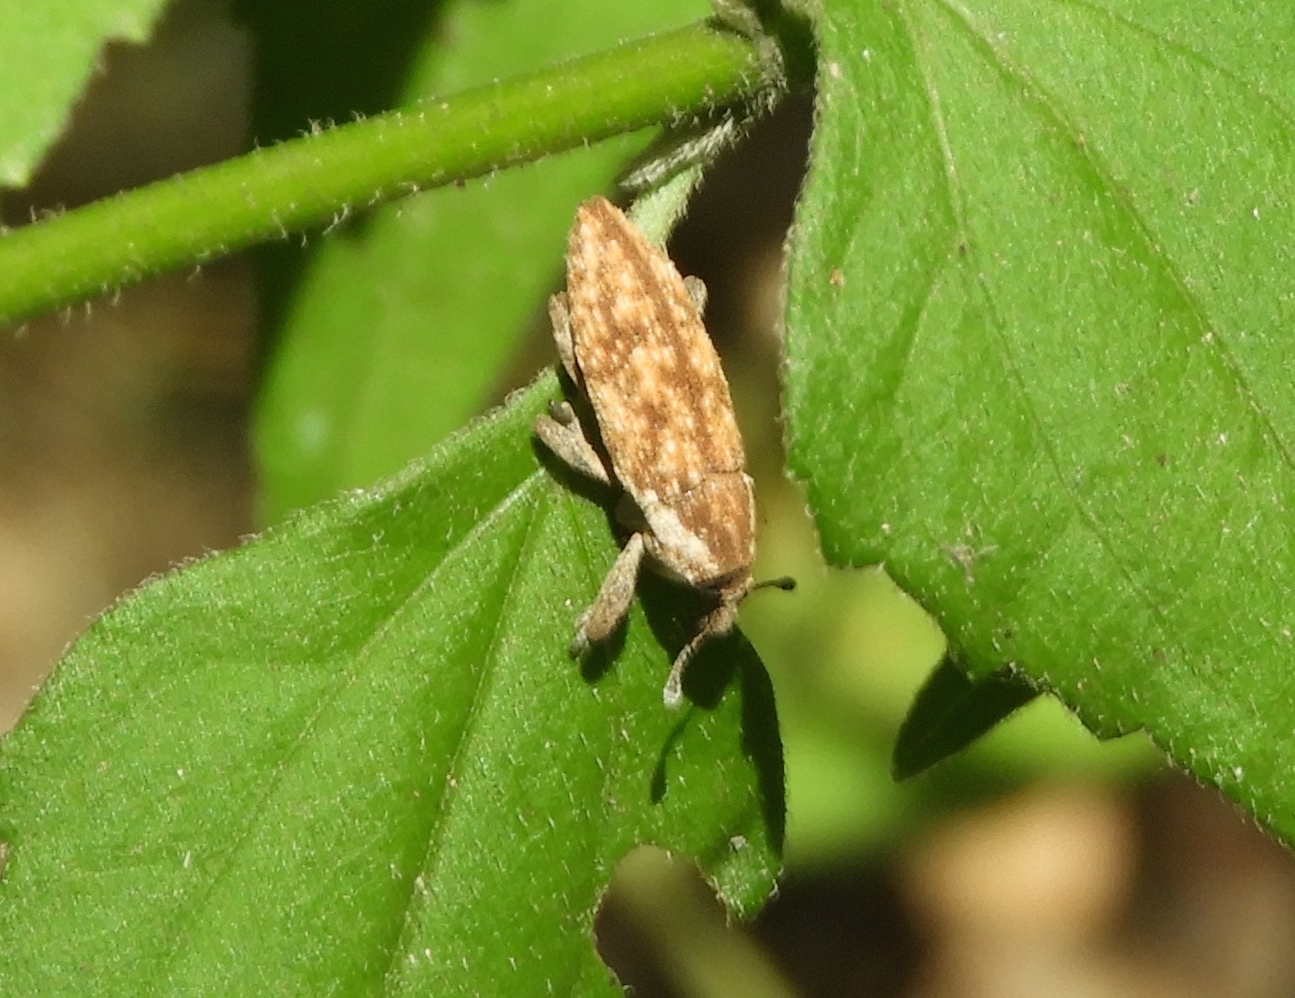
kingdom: Animalia
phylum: Arthropoda
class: Insecta
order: Coleoptera
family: Curculionidae
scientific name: Curculionidae
